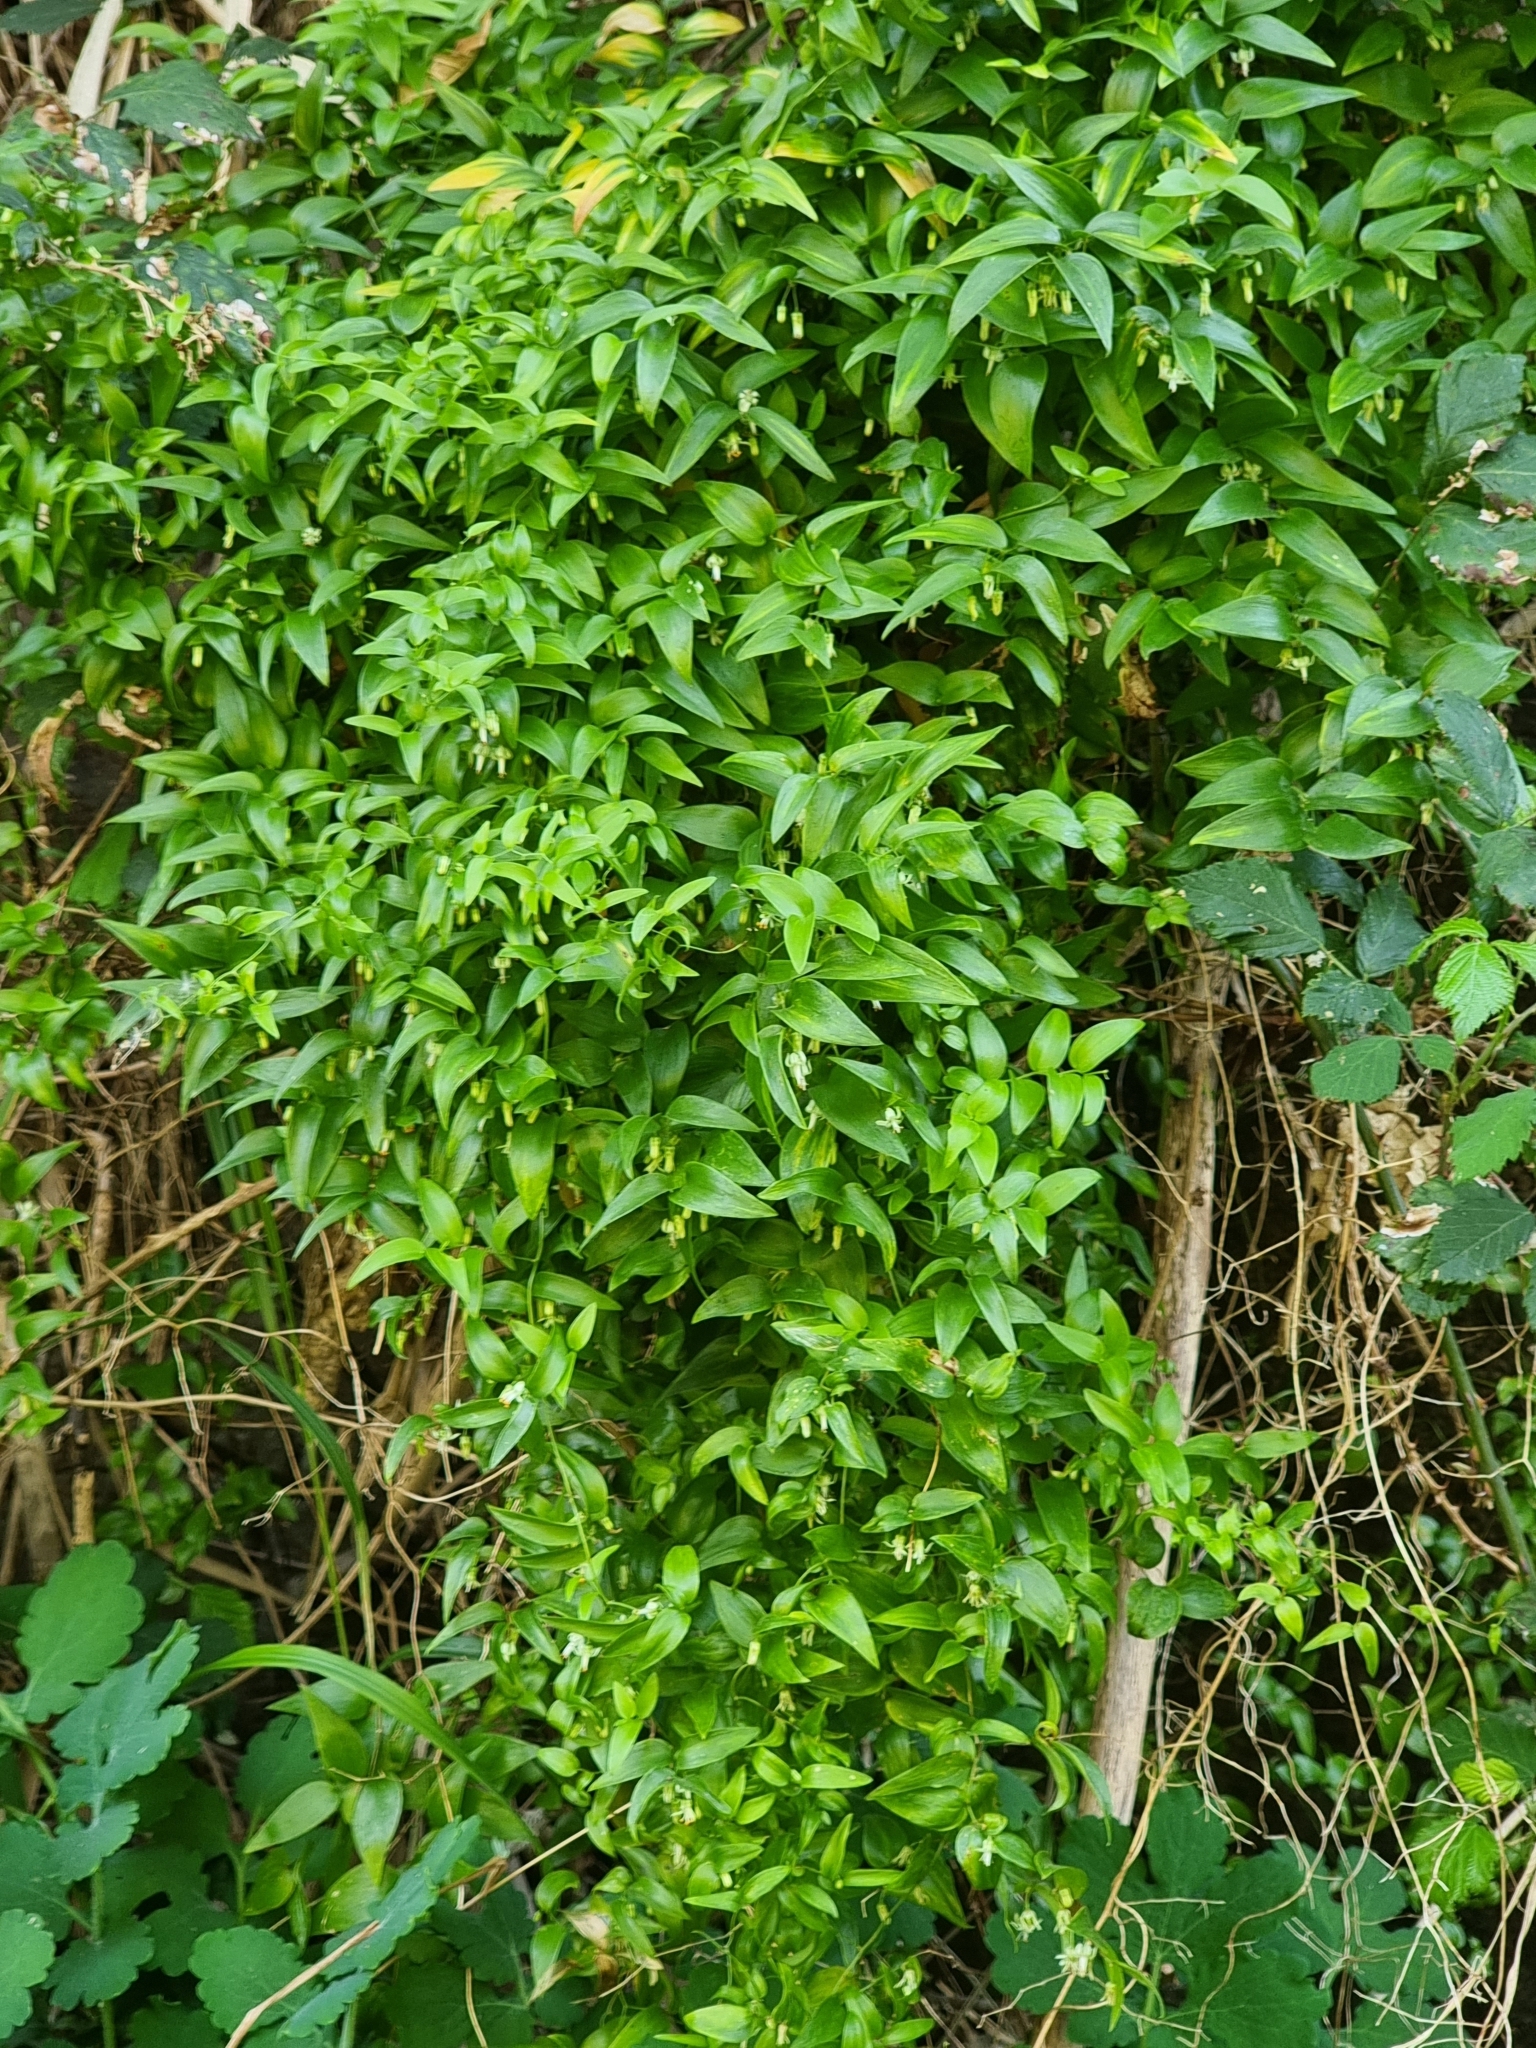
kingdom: Plantae
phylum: Tracheophyta
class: Liliopsida
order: Asparagales
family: Asparagaceae
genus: Asparagus
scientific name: Asparagus asparagoides
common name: African asparagus fern
